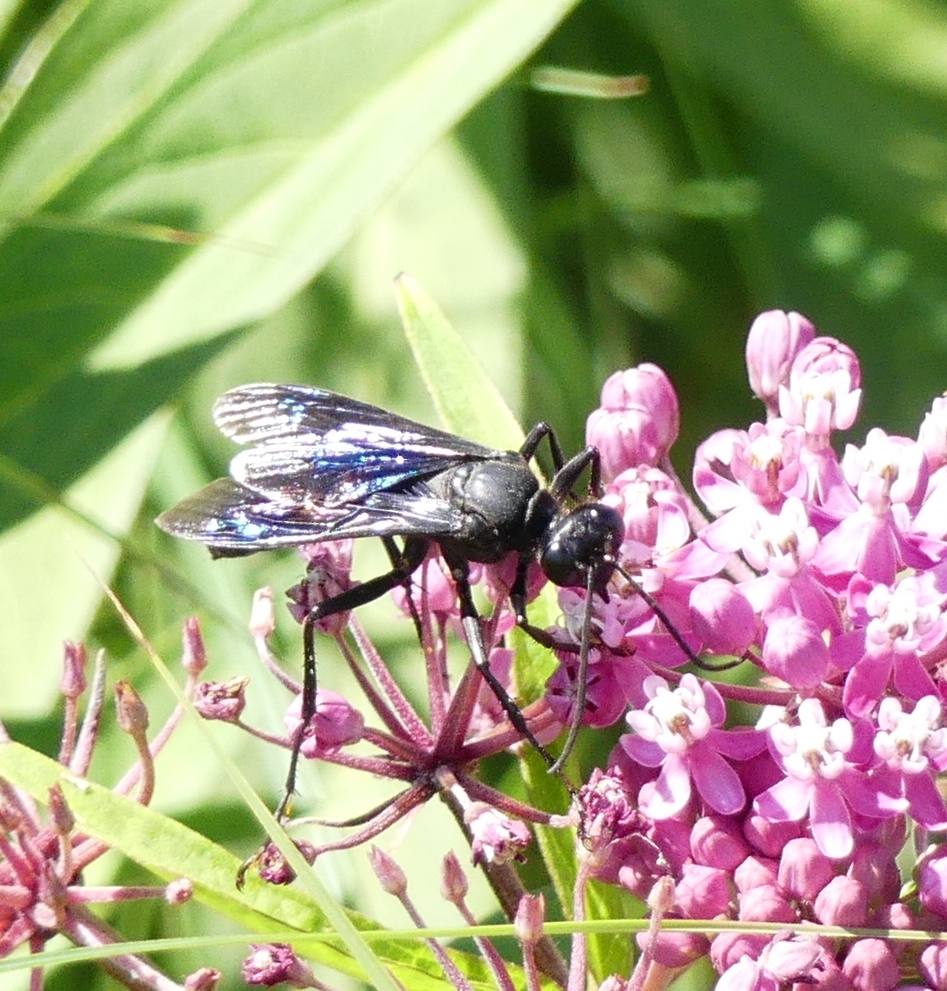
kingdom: Animalia
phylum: Arthropoda
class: Insecta
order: Hymenoptera
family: Sphecidae
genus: Sphex
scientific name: Sphex pensylvanicus
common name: Great black digger wasp
